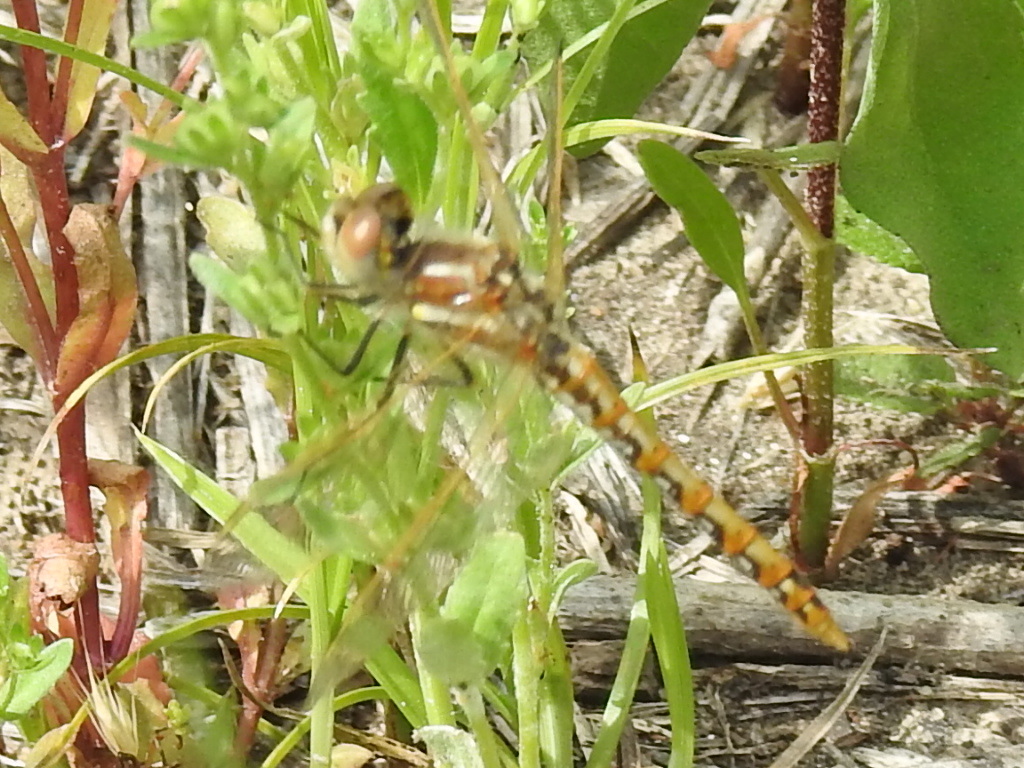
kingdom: Animalia
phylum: Arthropoda
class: Insecta
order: Odonata
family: Libellulidae
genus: Sympetrum
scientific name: Sympetrum corruptum
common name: Variegated meadowhawk
